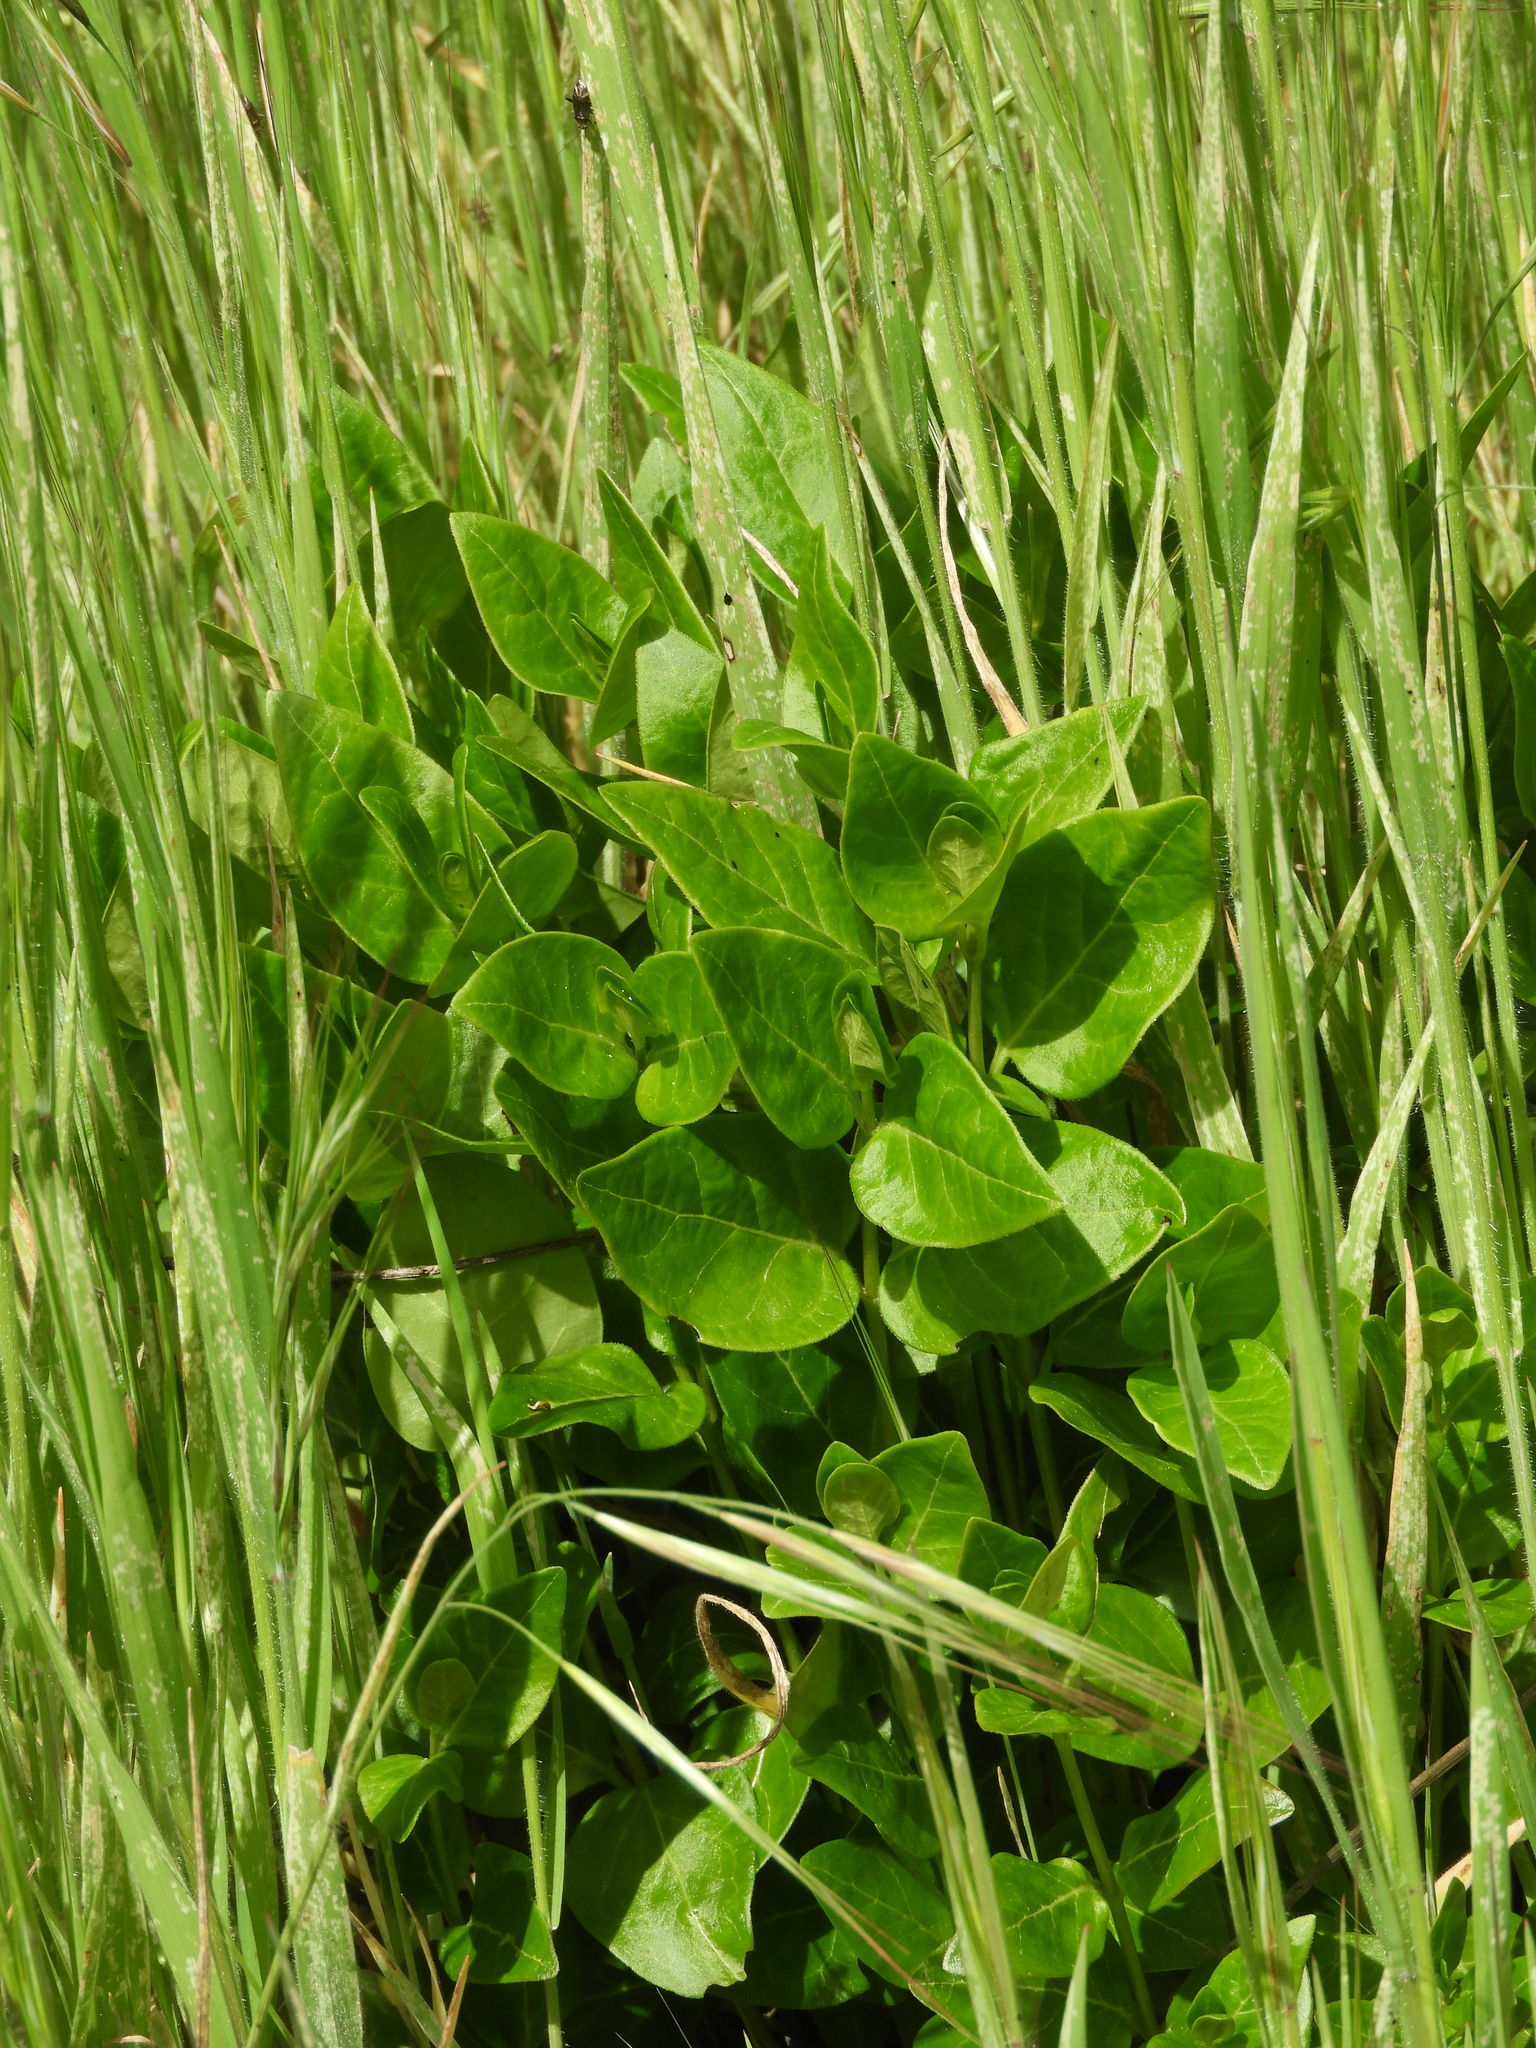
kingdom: Plantae
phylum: Tracheophyta
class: Magnoliopsida
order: Gentianales
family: Apocynaceae
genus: Vinca
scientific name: Vinca major
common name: Greater periwinkle
